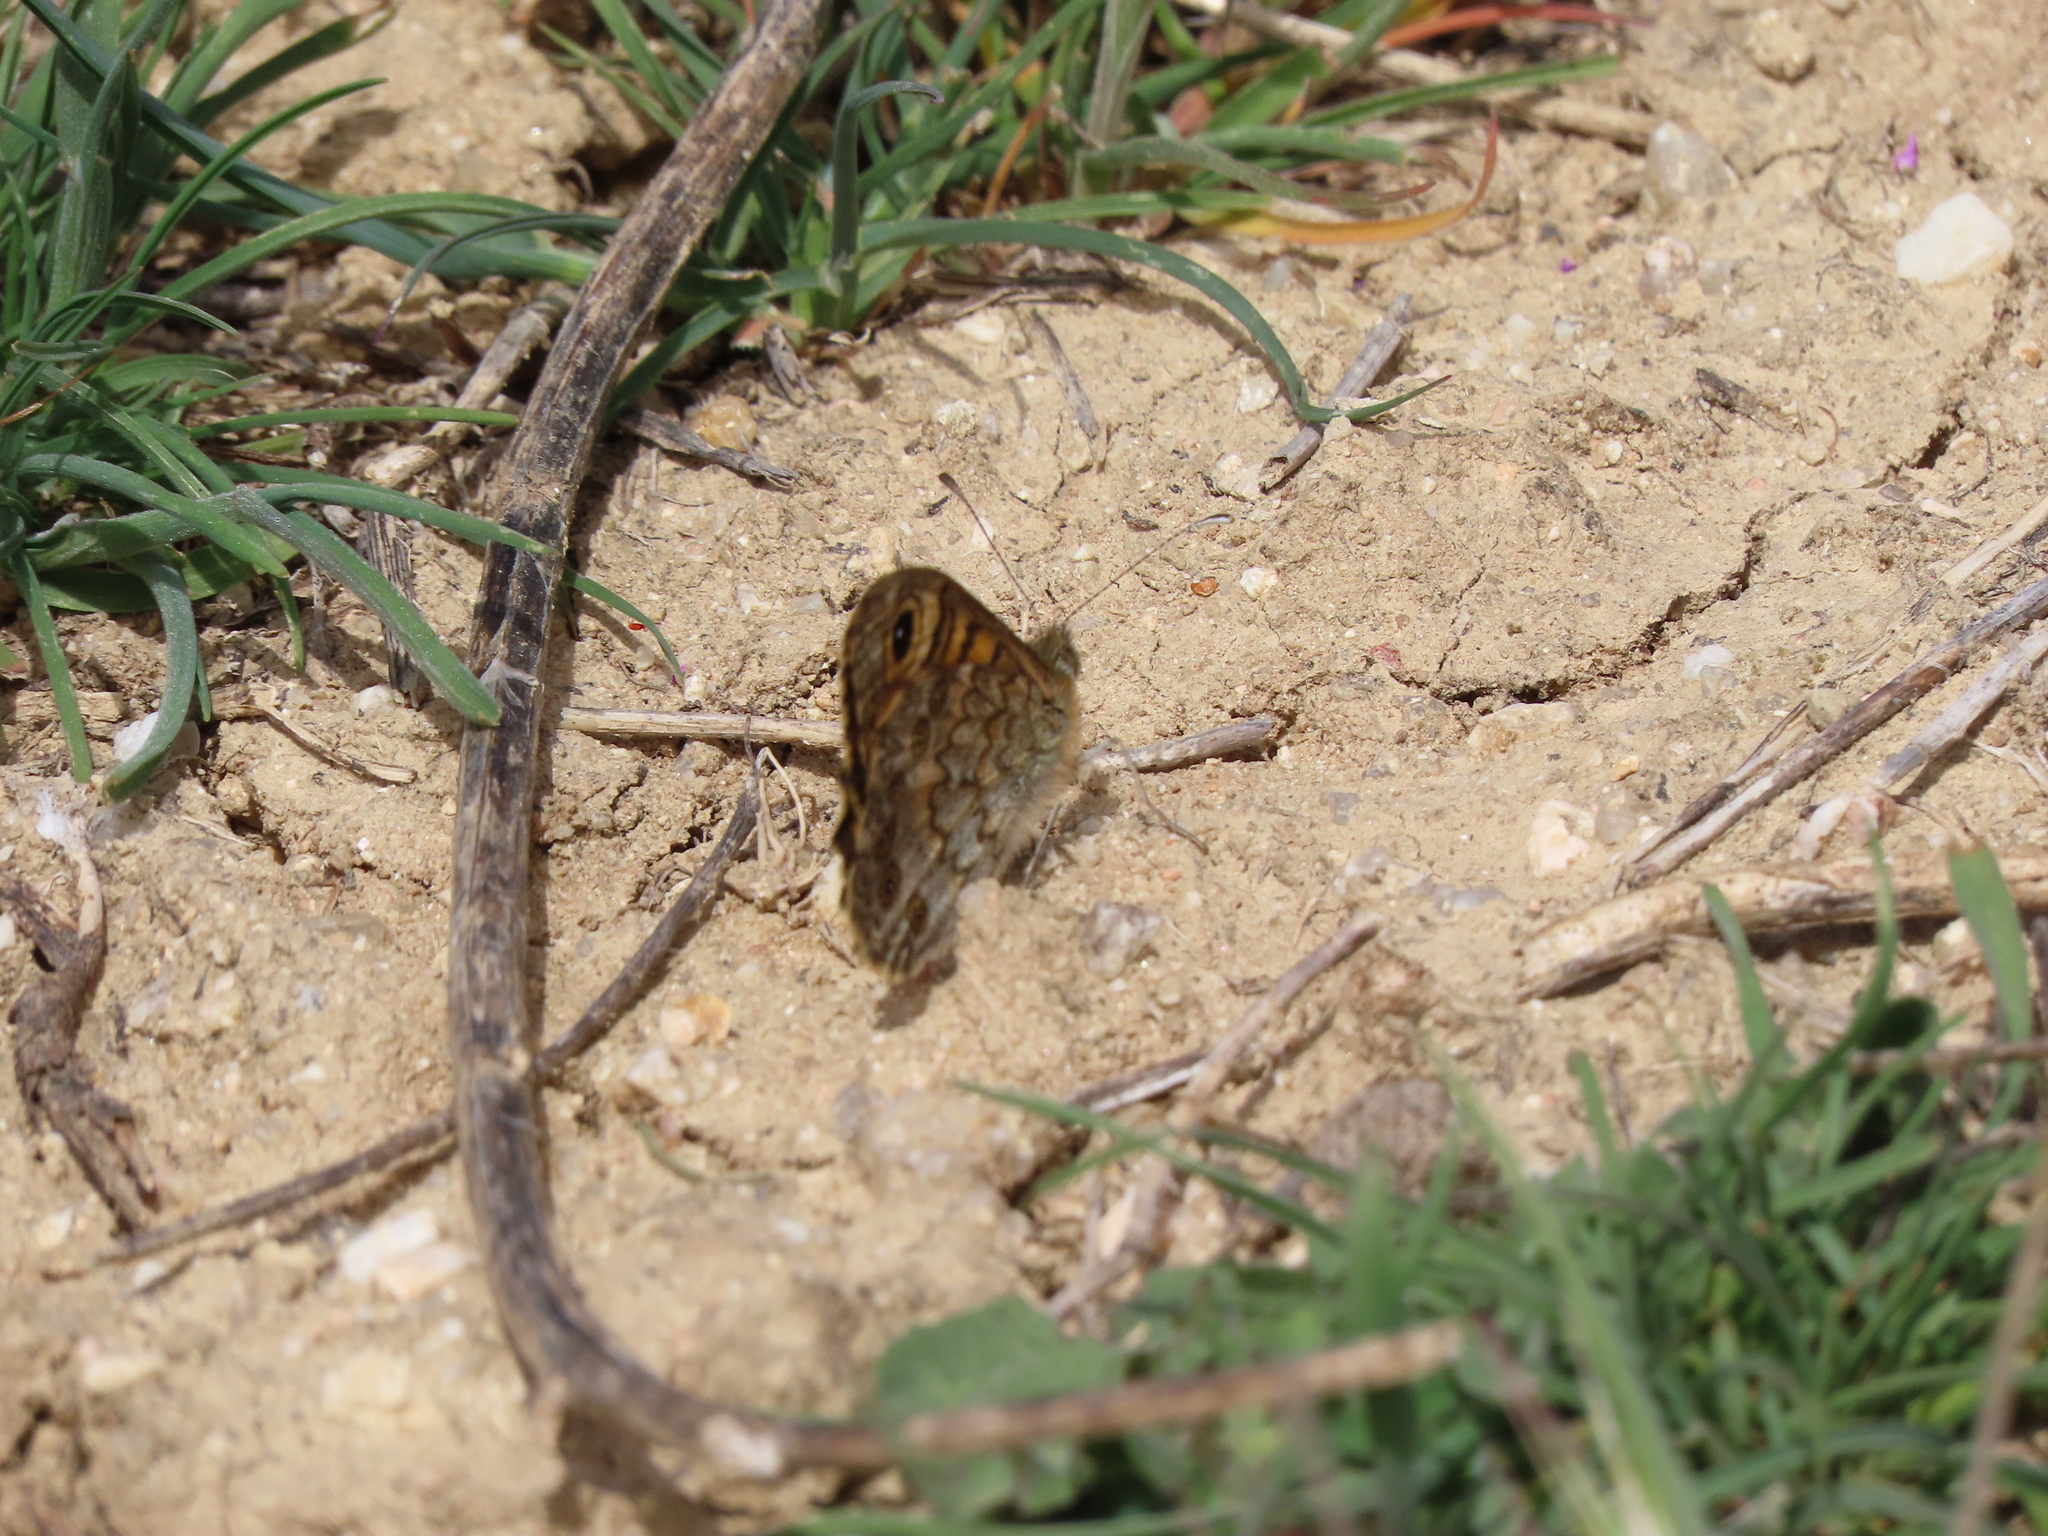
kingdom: Animalia
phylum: Arthropoda
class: Insecta
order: Lepidoptera
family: Nymphalidae
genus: Pararge
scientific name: Pararge Lasiommata megera
